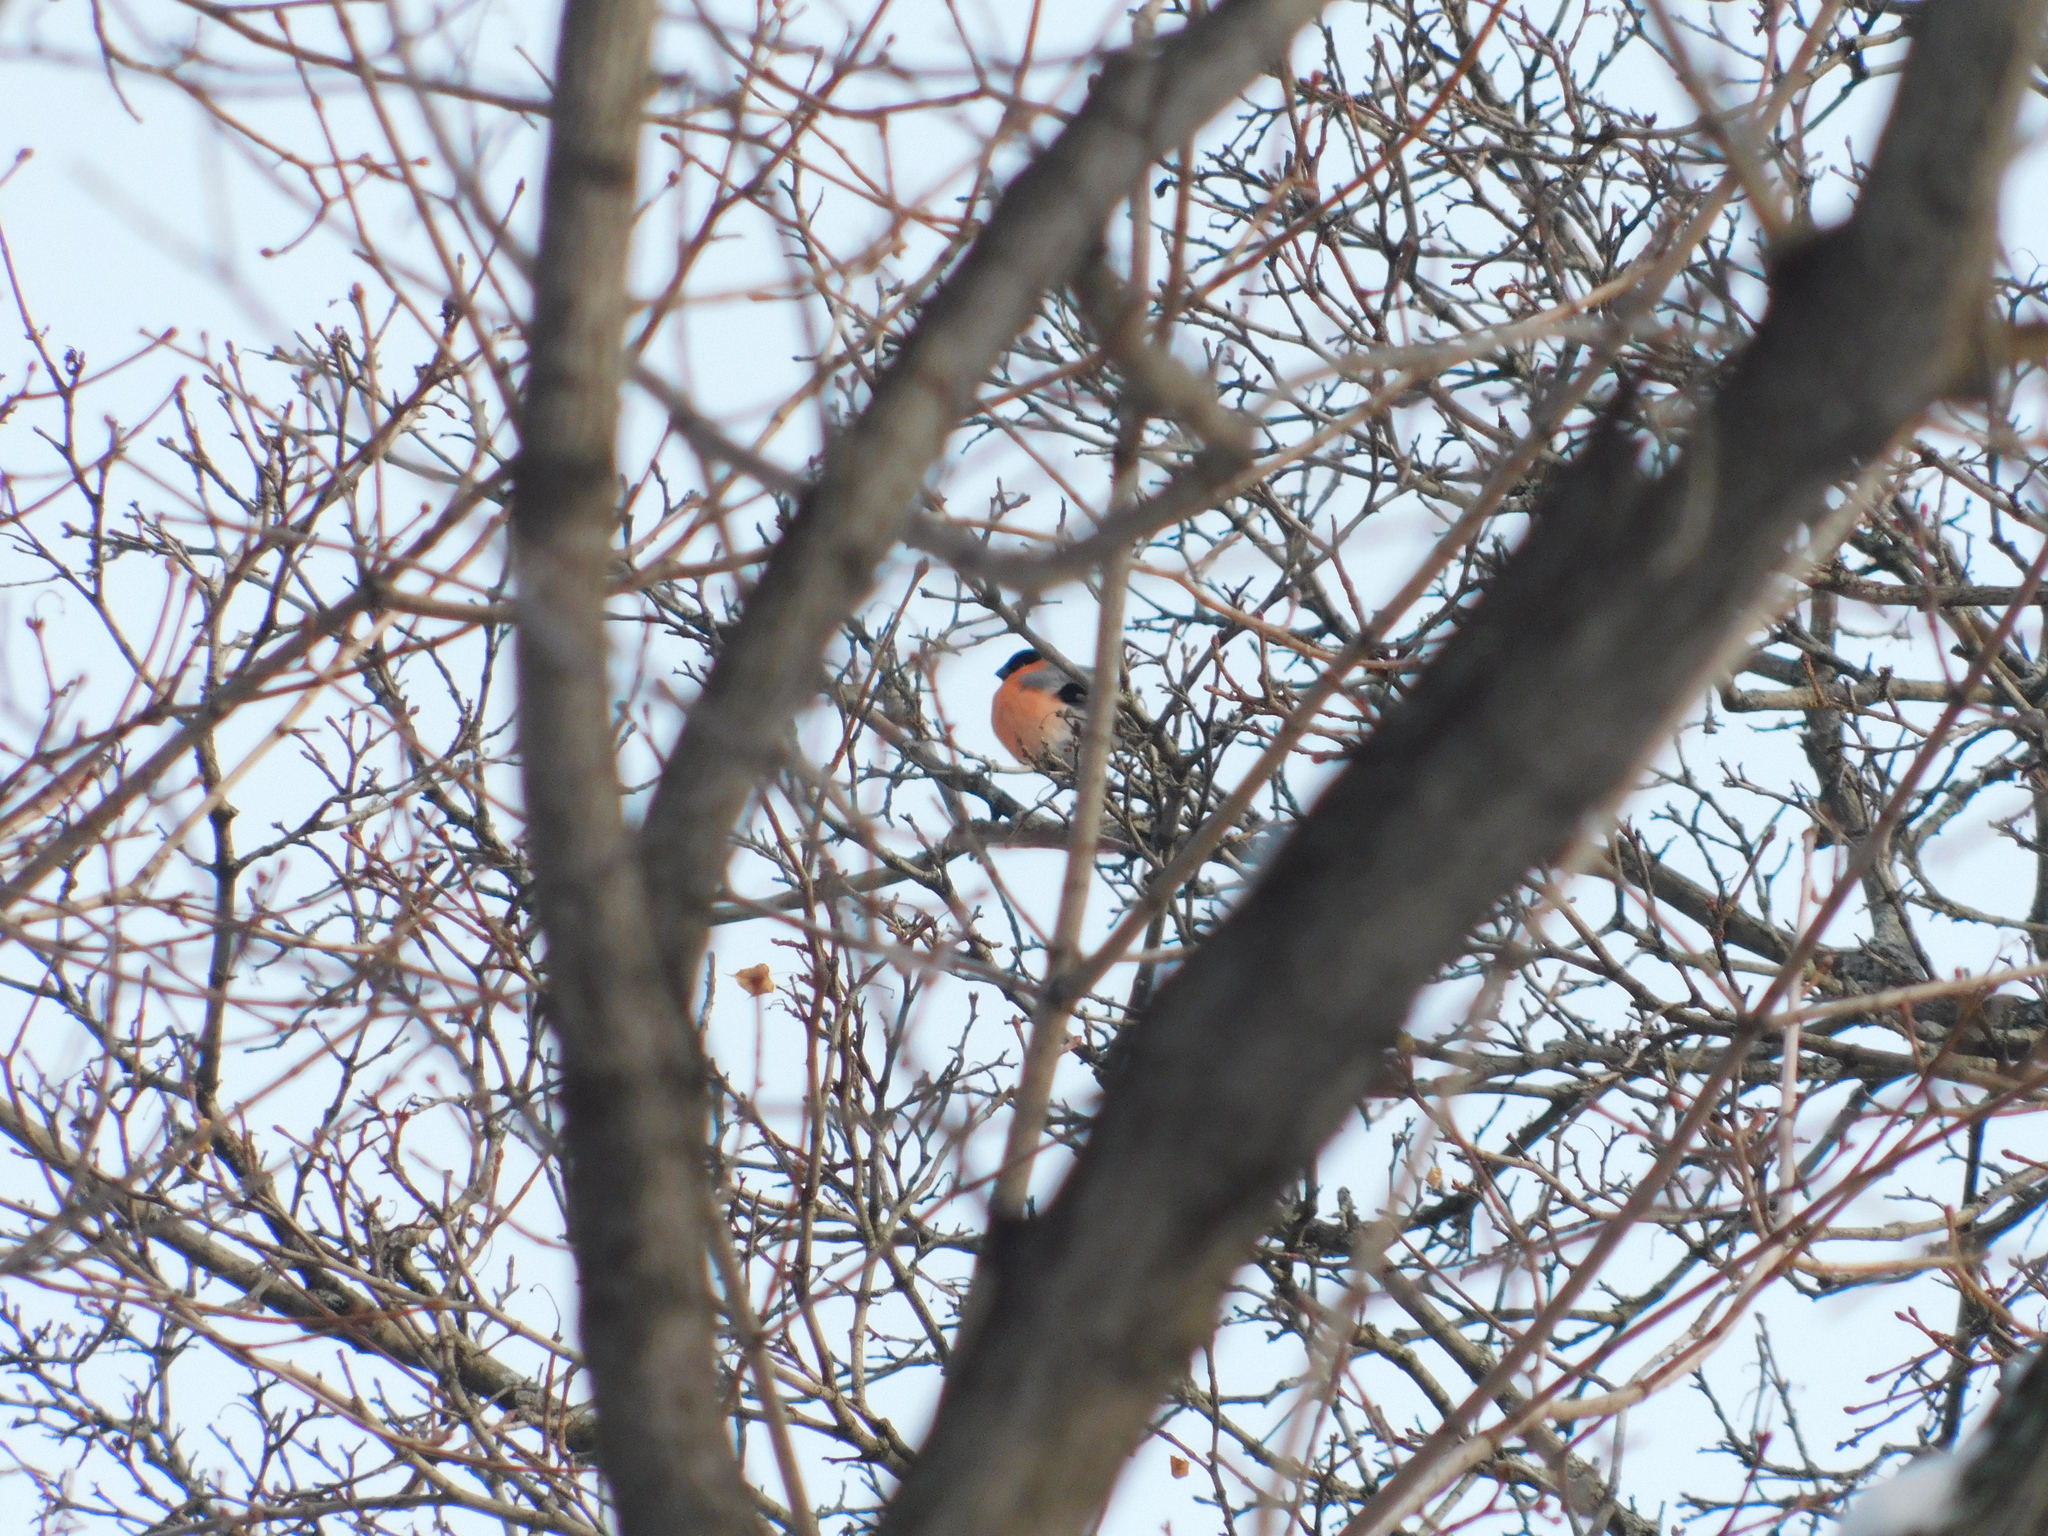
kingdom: Animalia
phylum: Chordata
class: Aves
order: Passeriformes
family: Fringillidae
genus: Pyrrhula
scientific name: Pyrrhula pyrrhula
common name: Eurasian bullfinch
